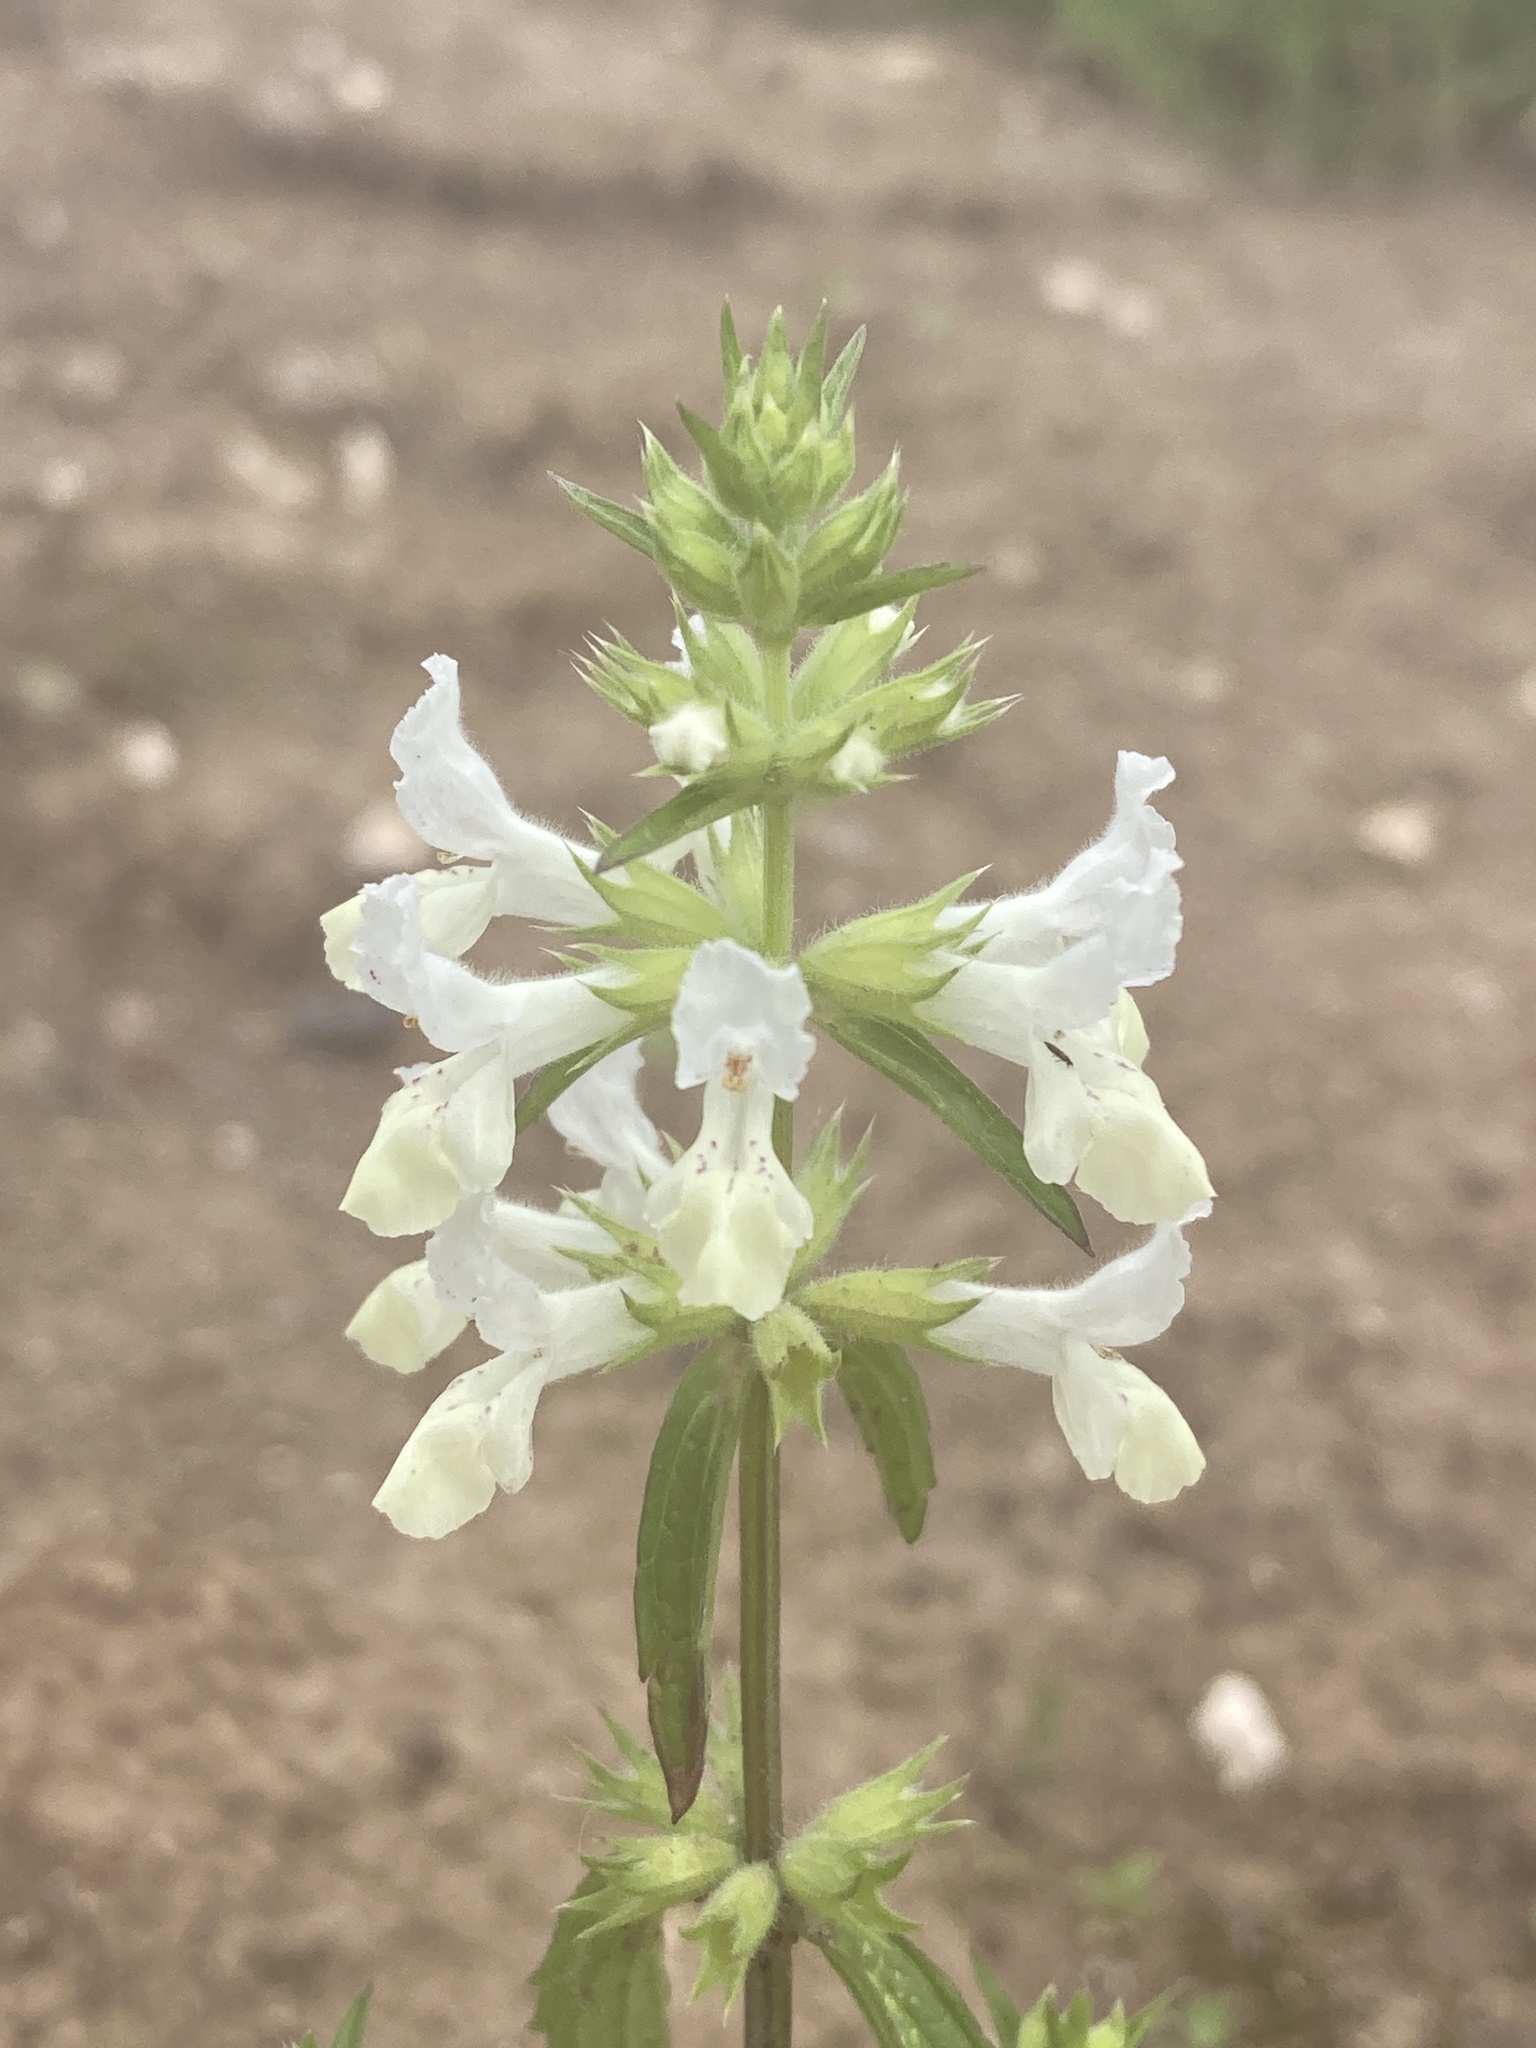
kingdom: Plantae
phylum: Tracheophyta
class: Magnoliopsida
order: Lamiales
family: Lamiaceae
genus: Stachys
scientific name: Stachys annua
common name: Annual yellow-woundwort
